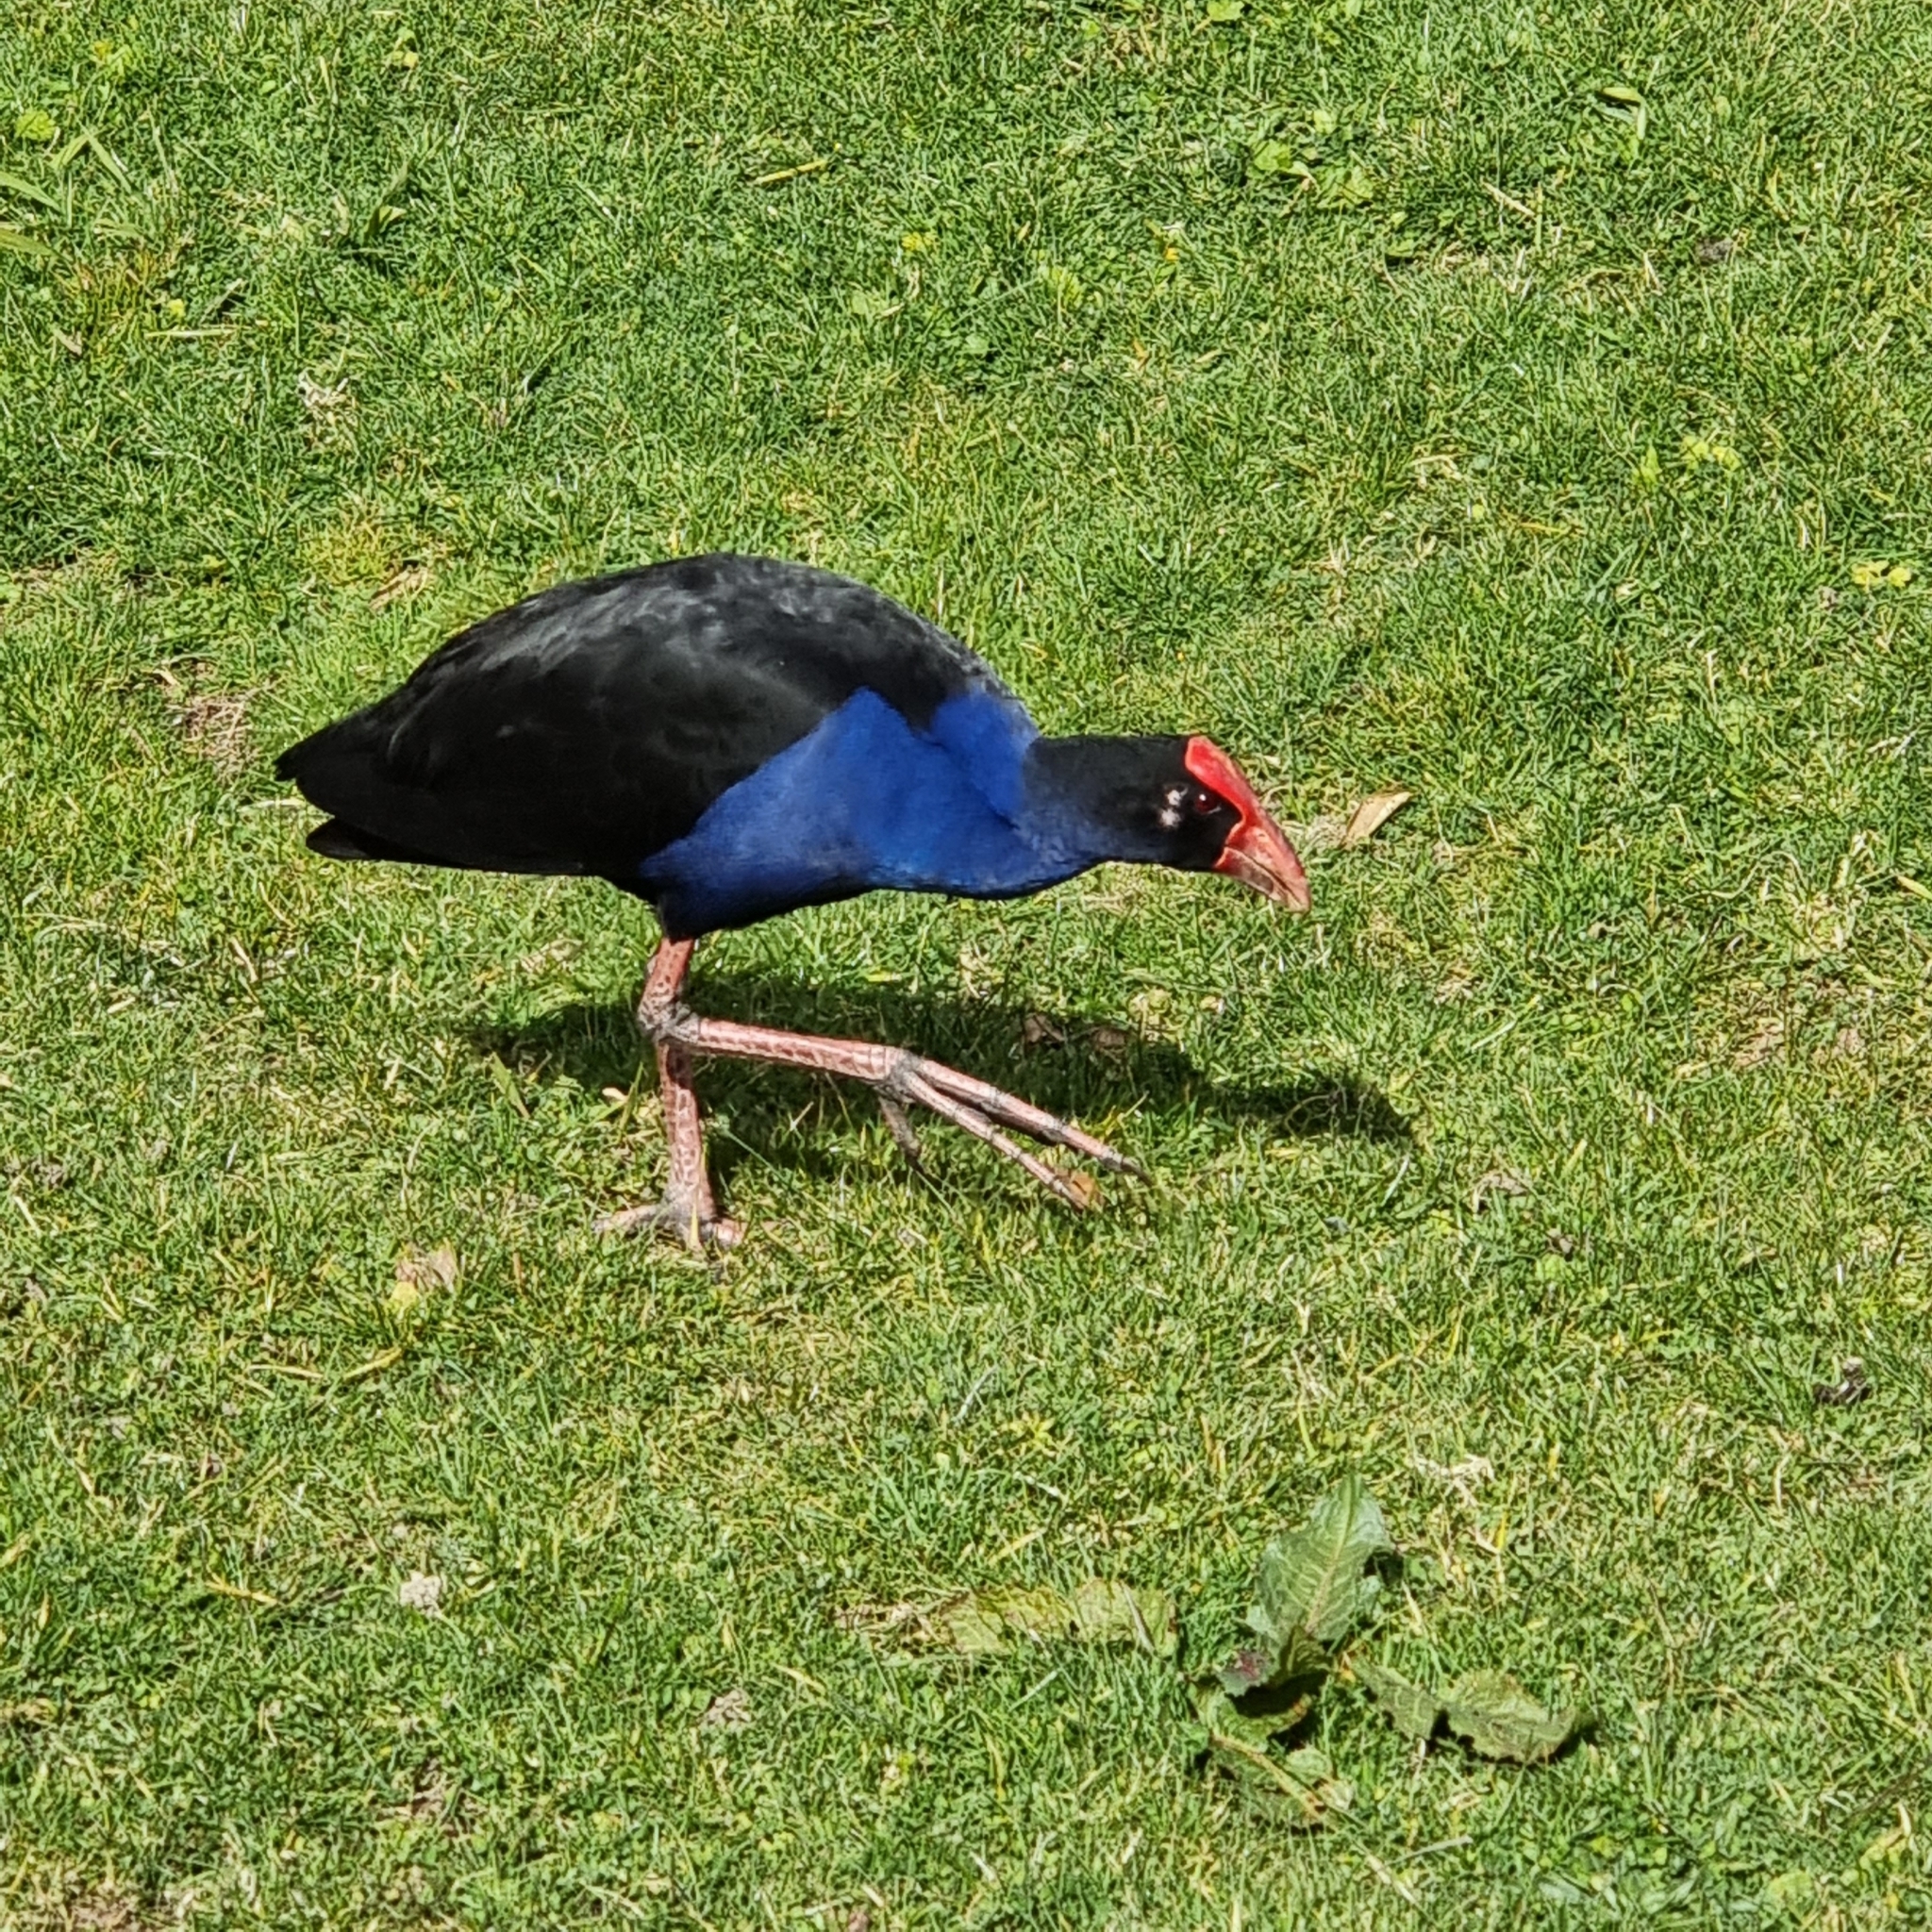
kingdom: Animalia
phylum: Chordata
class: Aves
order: Gruiformes
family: Rallidae
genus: Porphyrio
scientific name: Porphyrio melanotus
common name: Australasian swamphen
